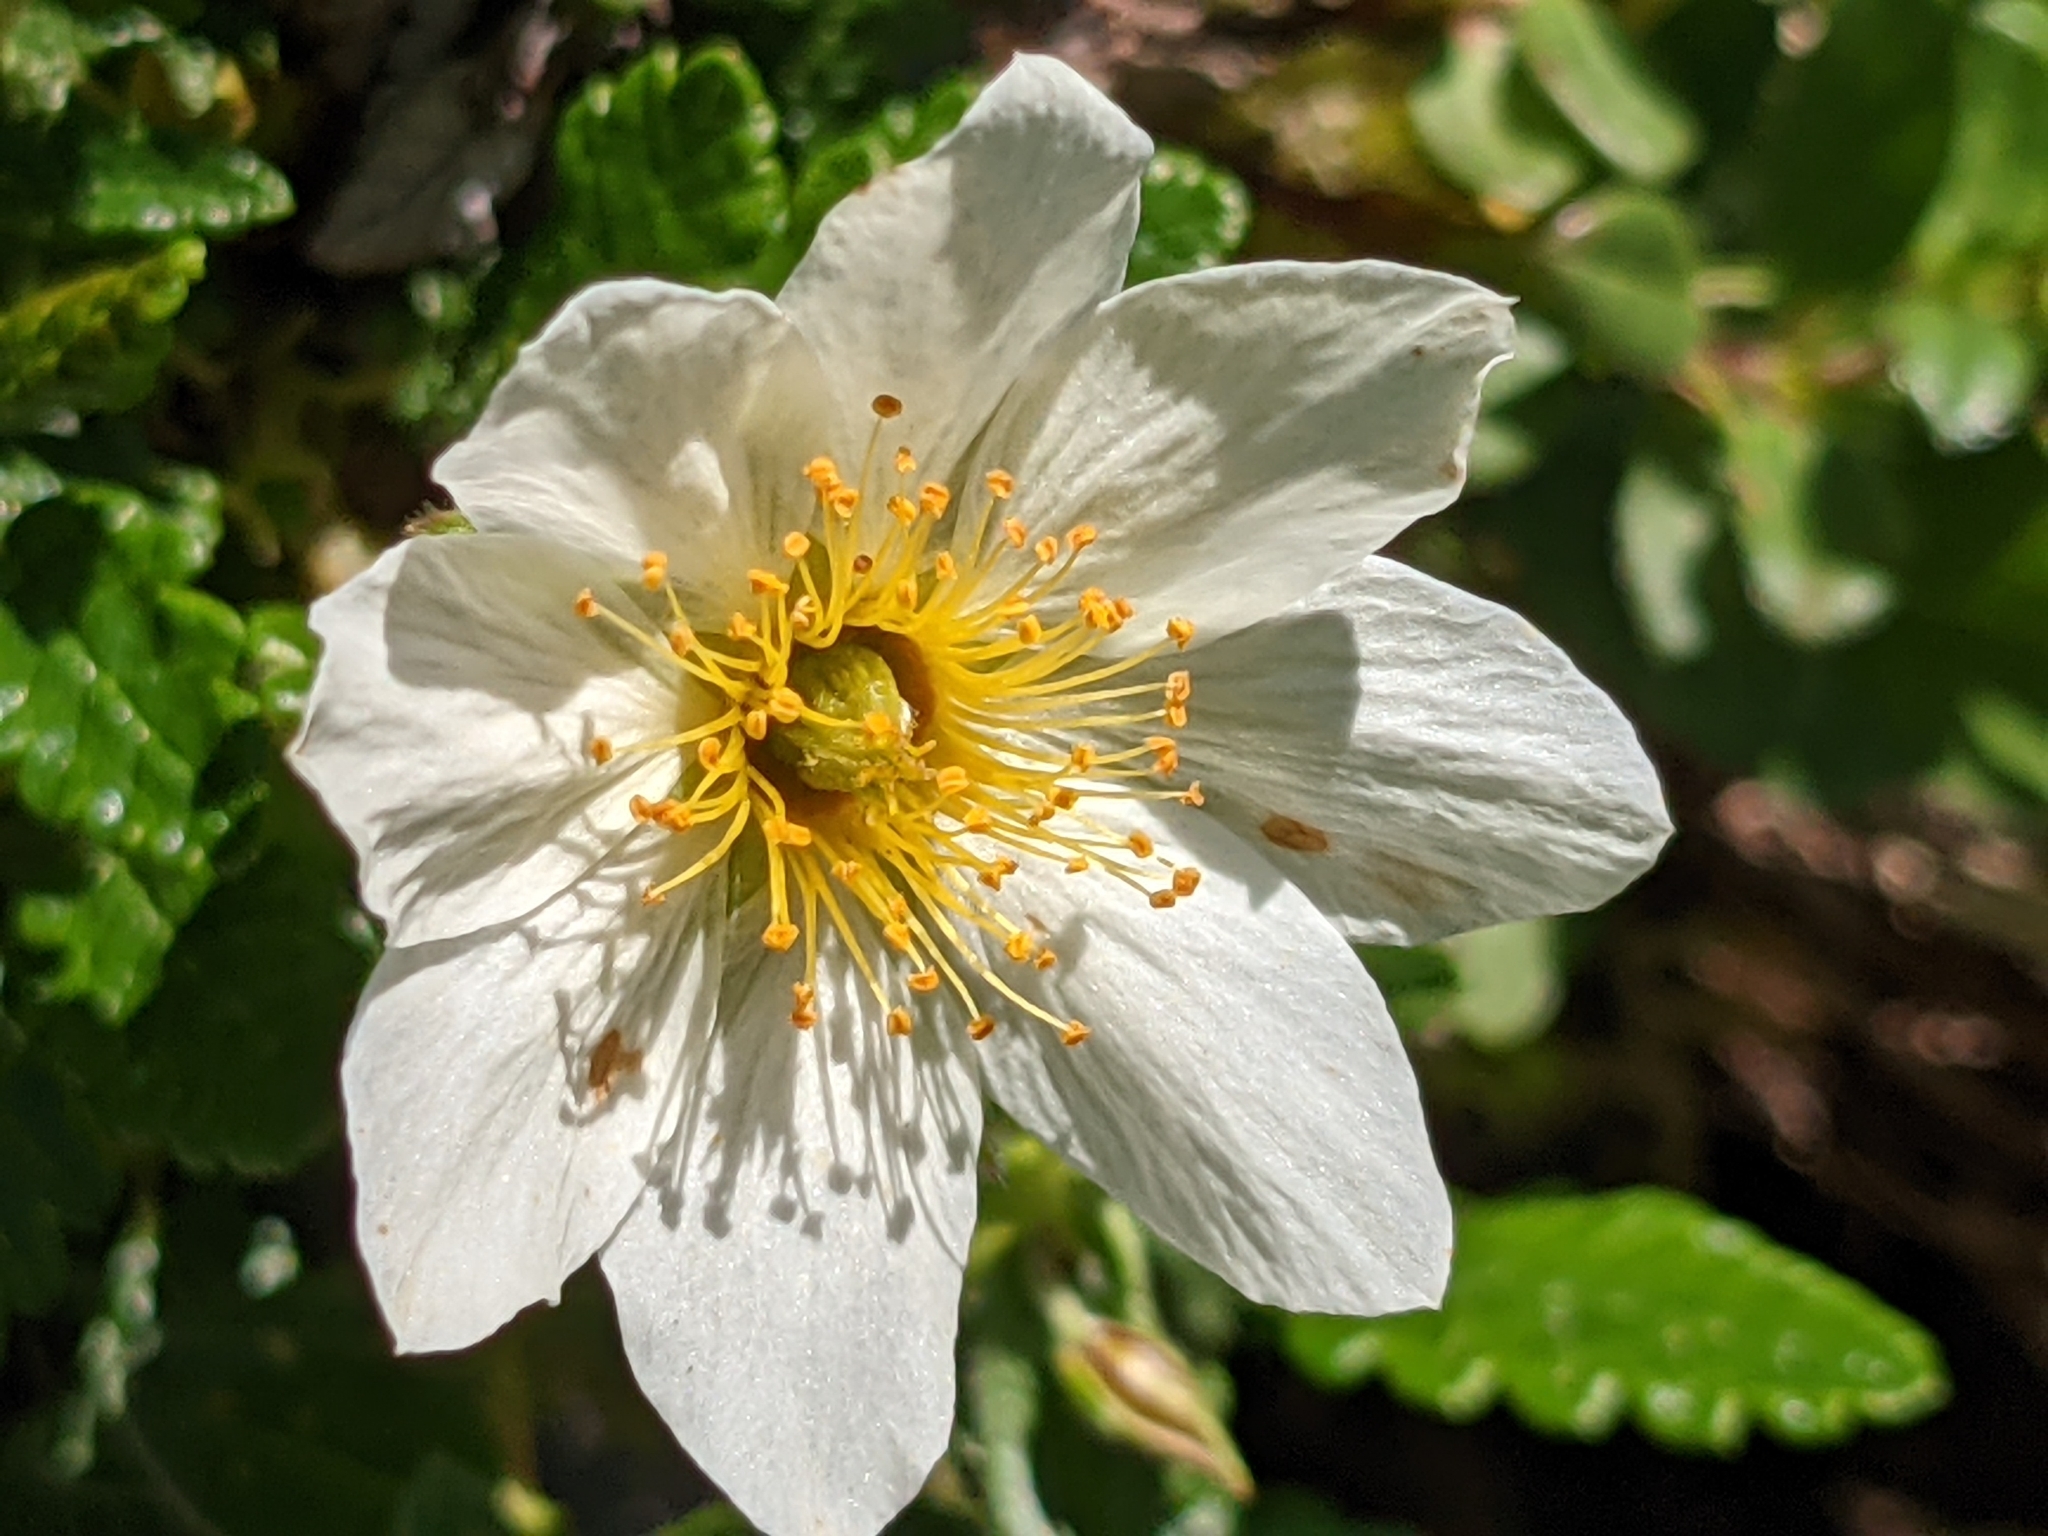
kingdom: Plantae
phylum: Tracheophyta
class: Magnoliopsida
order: Rosales
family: Rosaceae
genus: Dryas
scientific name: Dryas octopetala
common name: Eight-petal mountain-avens
